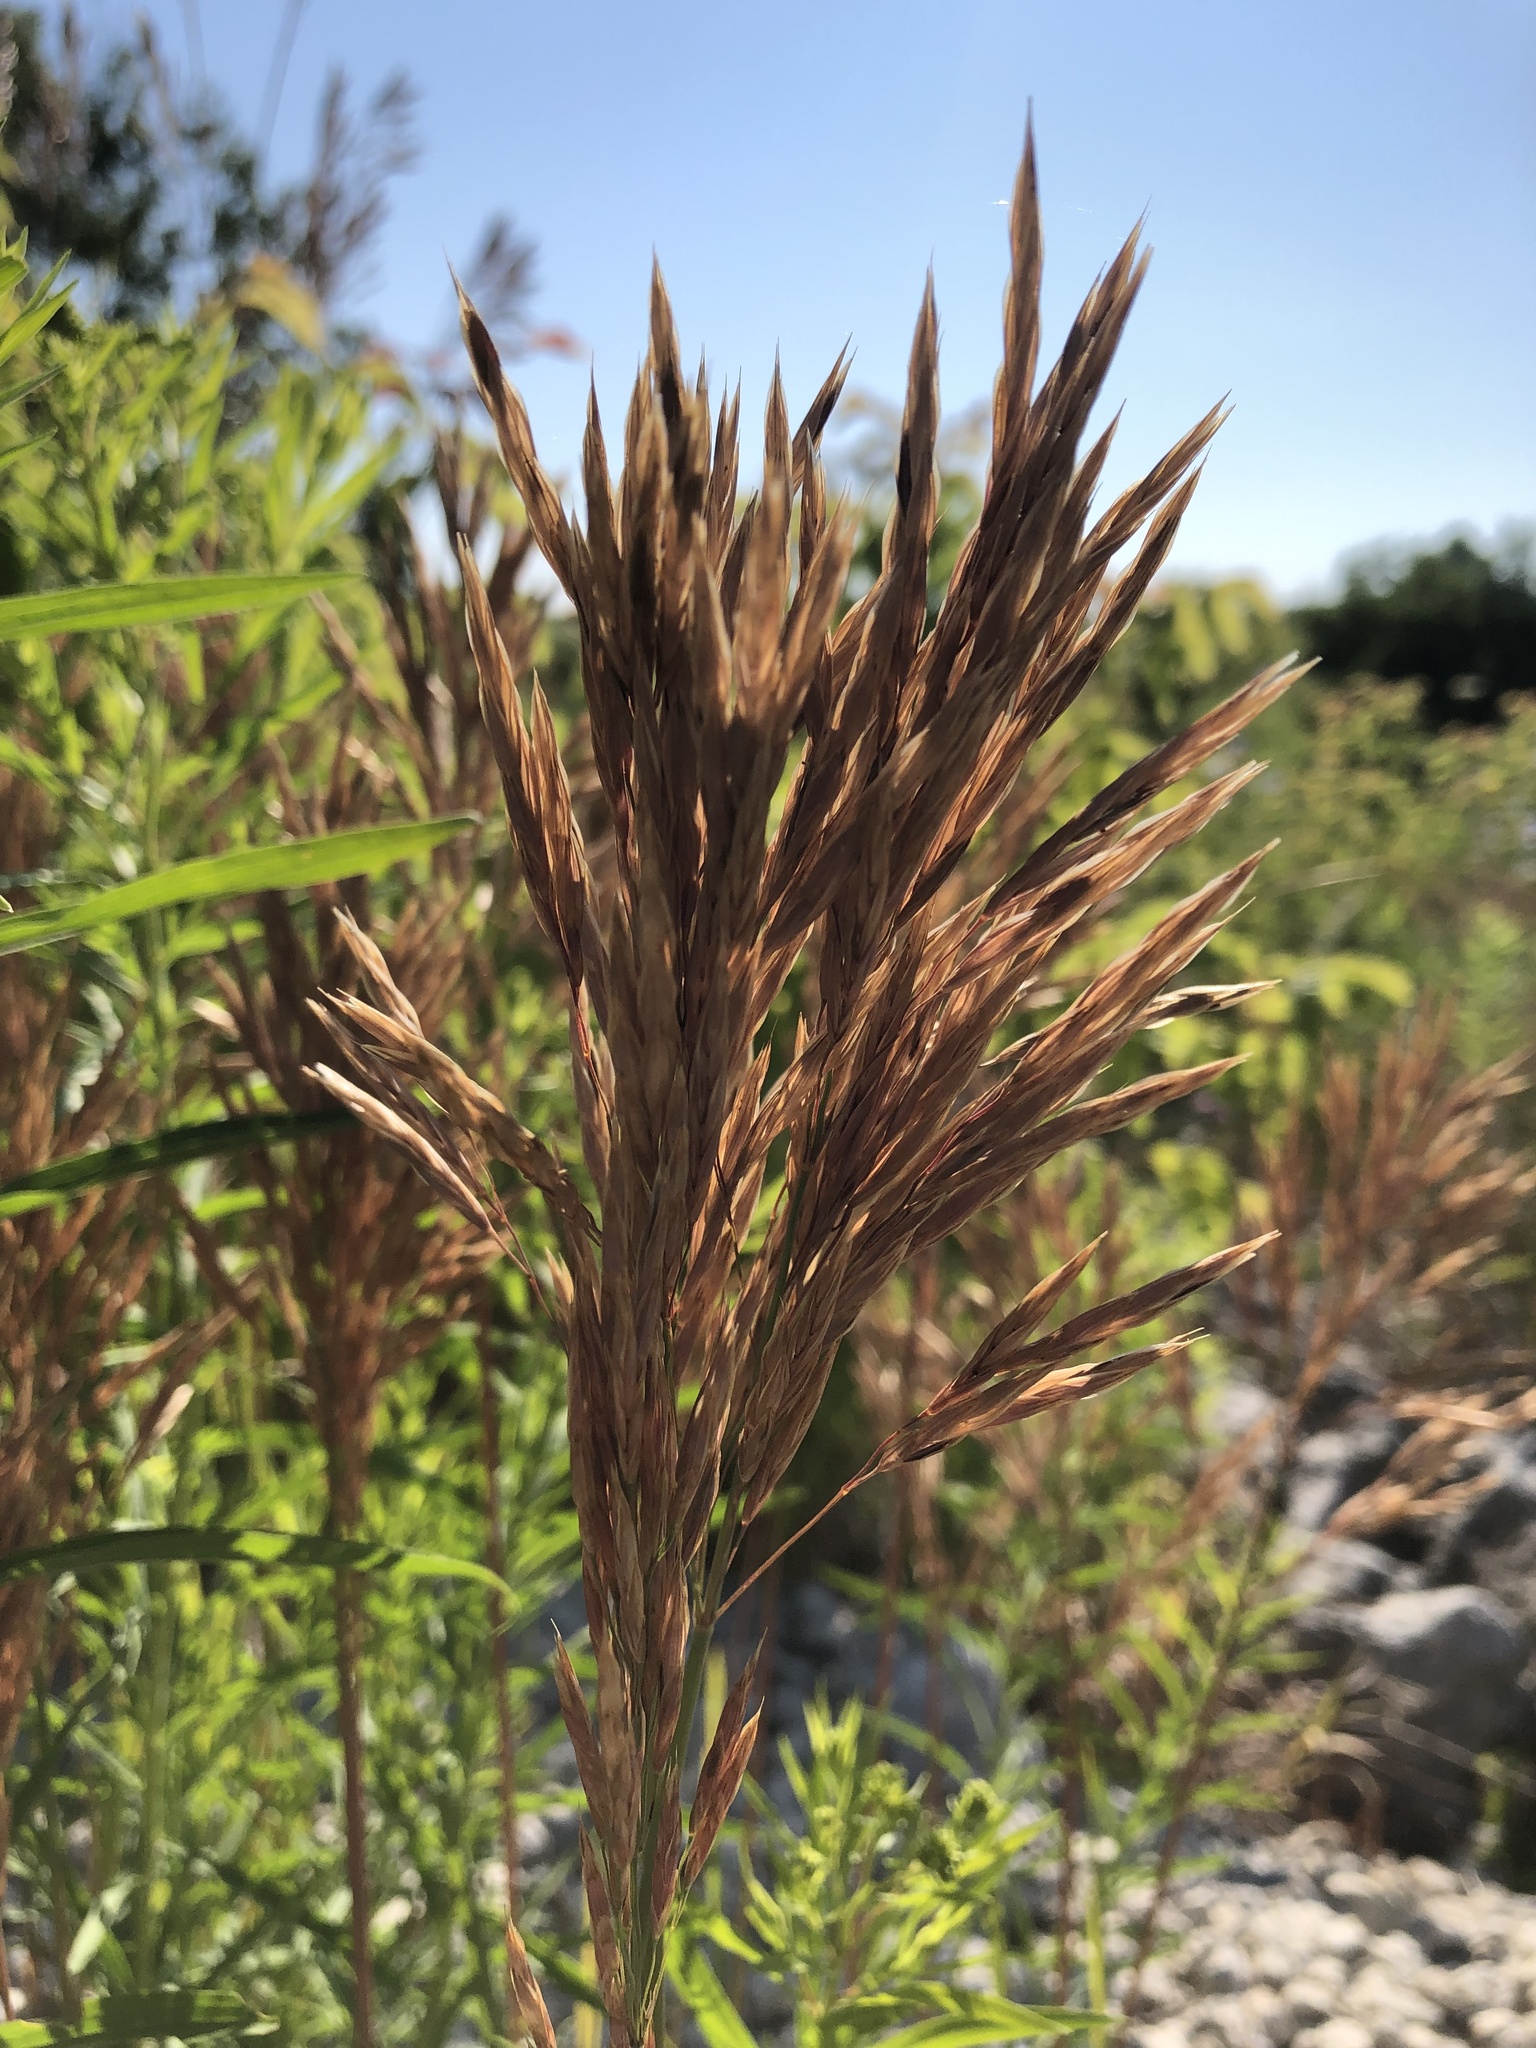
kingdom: Plantae
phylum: Tracheophyta
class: Liliopsida
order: Poales
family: Poaceae
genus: Bromus
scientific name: Bromus inermis
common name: Smooth brome
